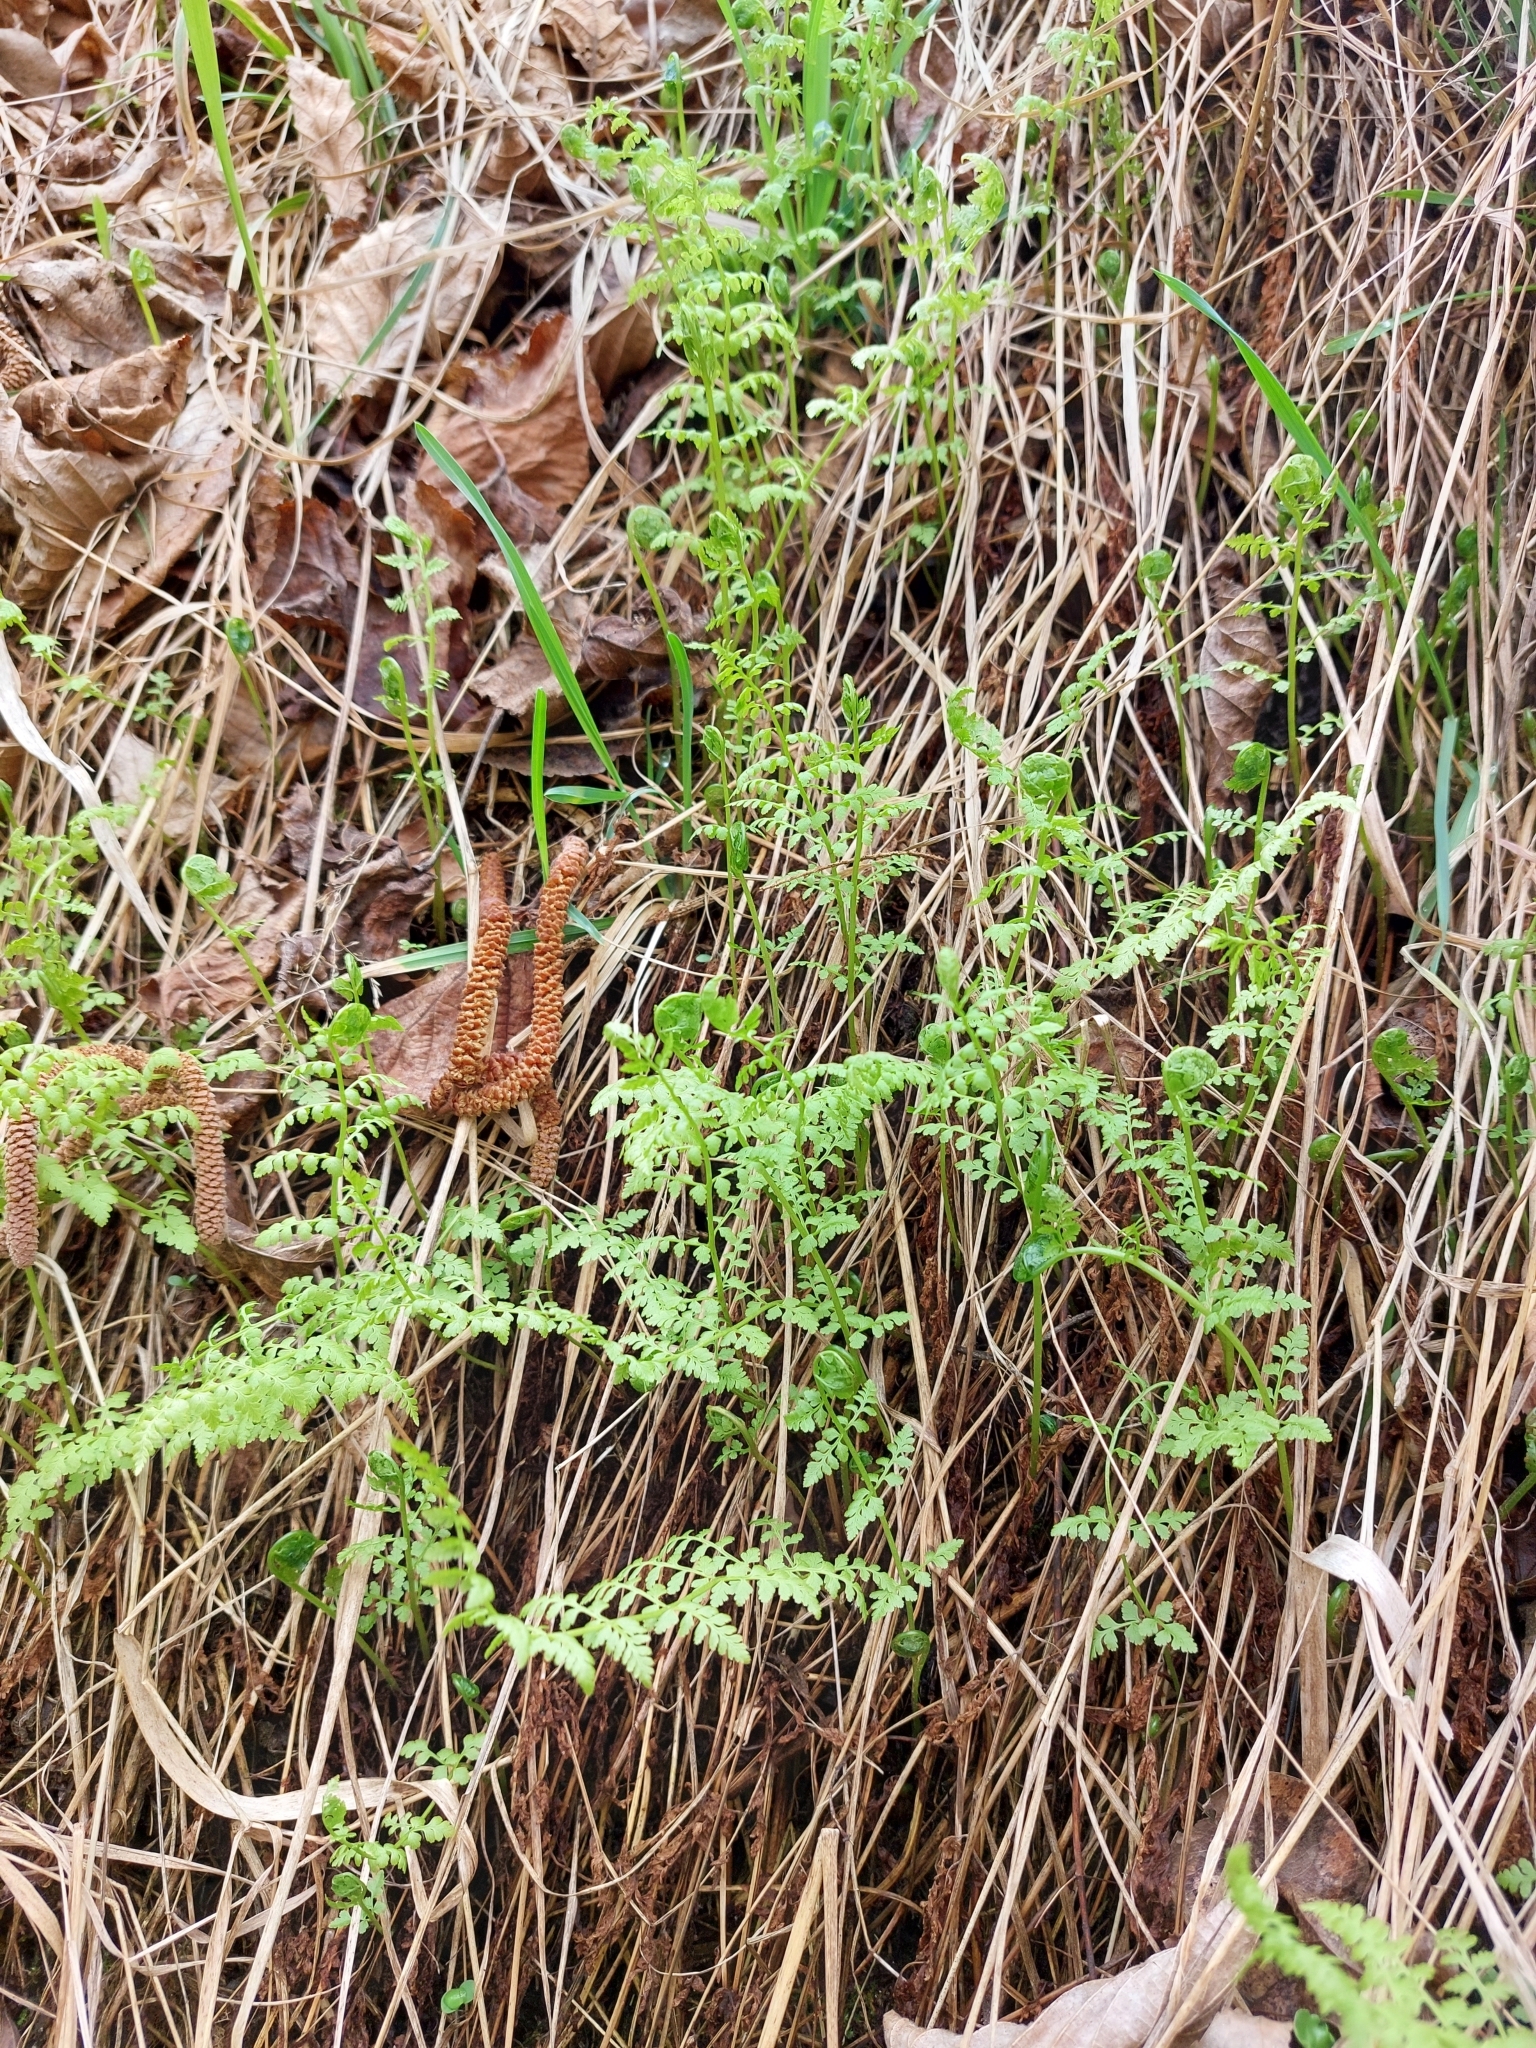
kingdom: Plantae
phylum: Tracheophyta
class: Polypodiopsida
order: Polypodiales
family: Cystopteridaceae
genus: Cystopteris
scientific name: Cystopteris fragilis
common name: Brittle bladder fern
